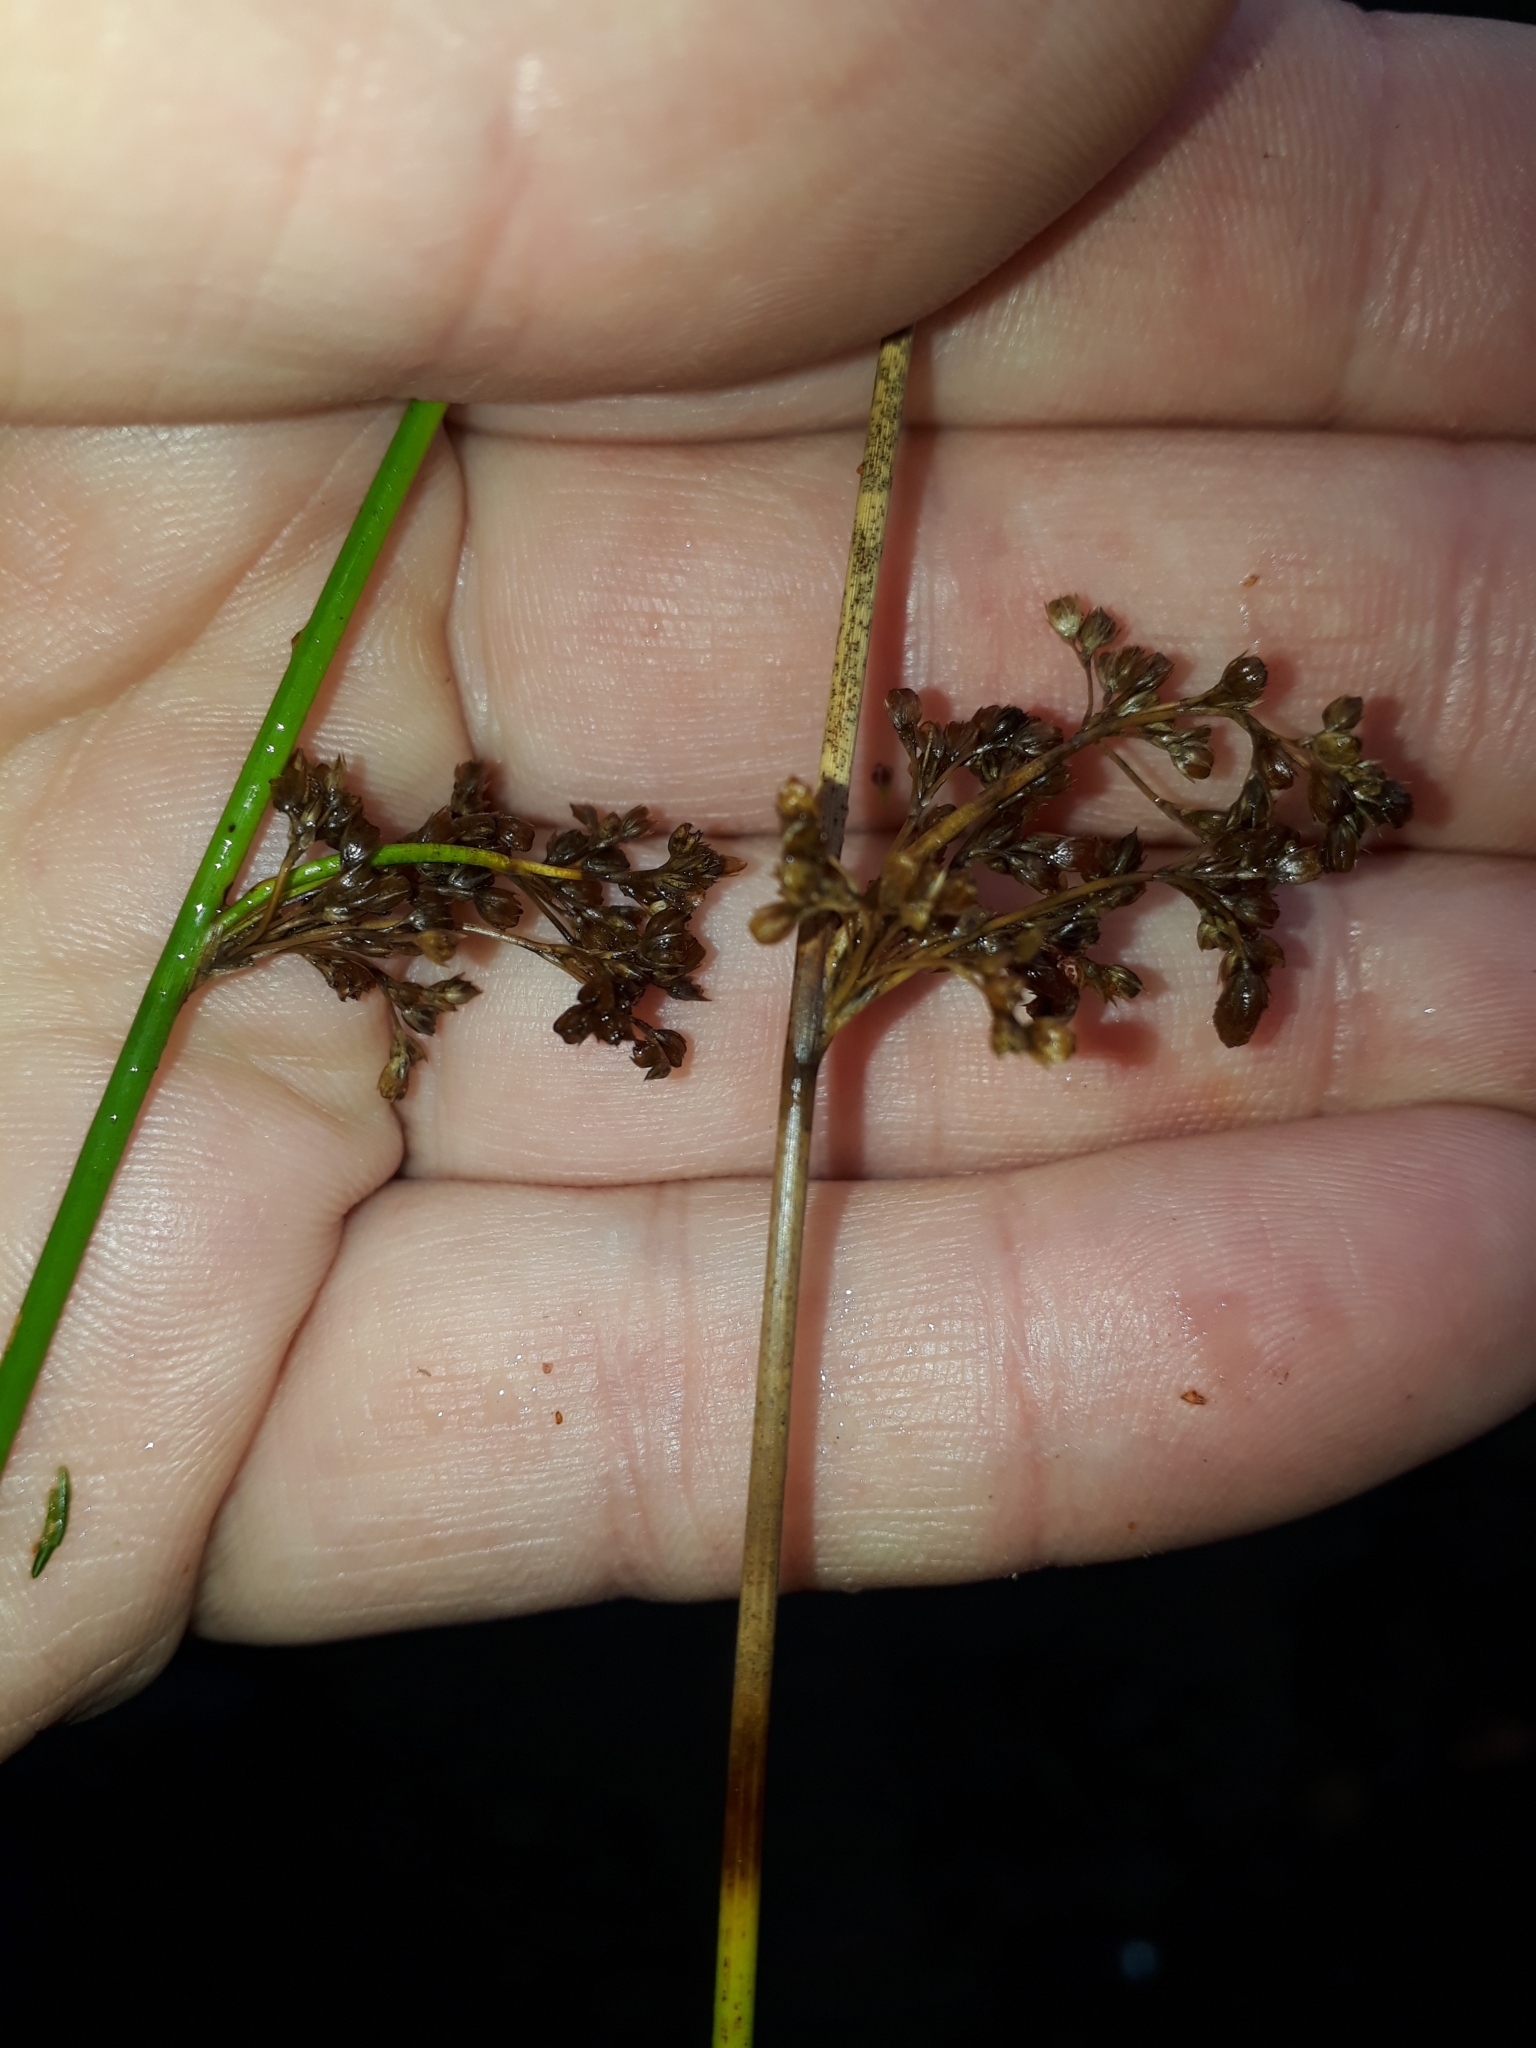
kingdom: Plantae
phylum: Tracheophyta
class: Liliopsida
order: Poales
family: Juncaceae
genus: Juncus
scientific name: Juncus effusus
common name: Soft rush
